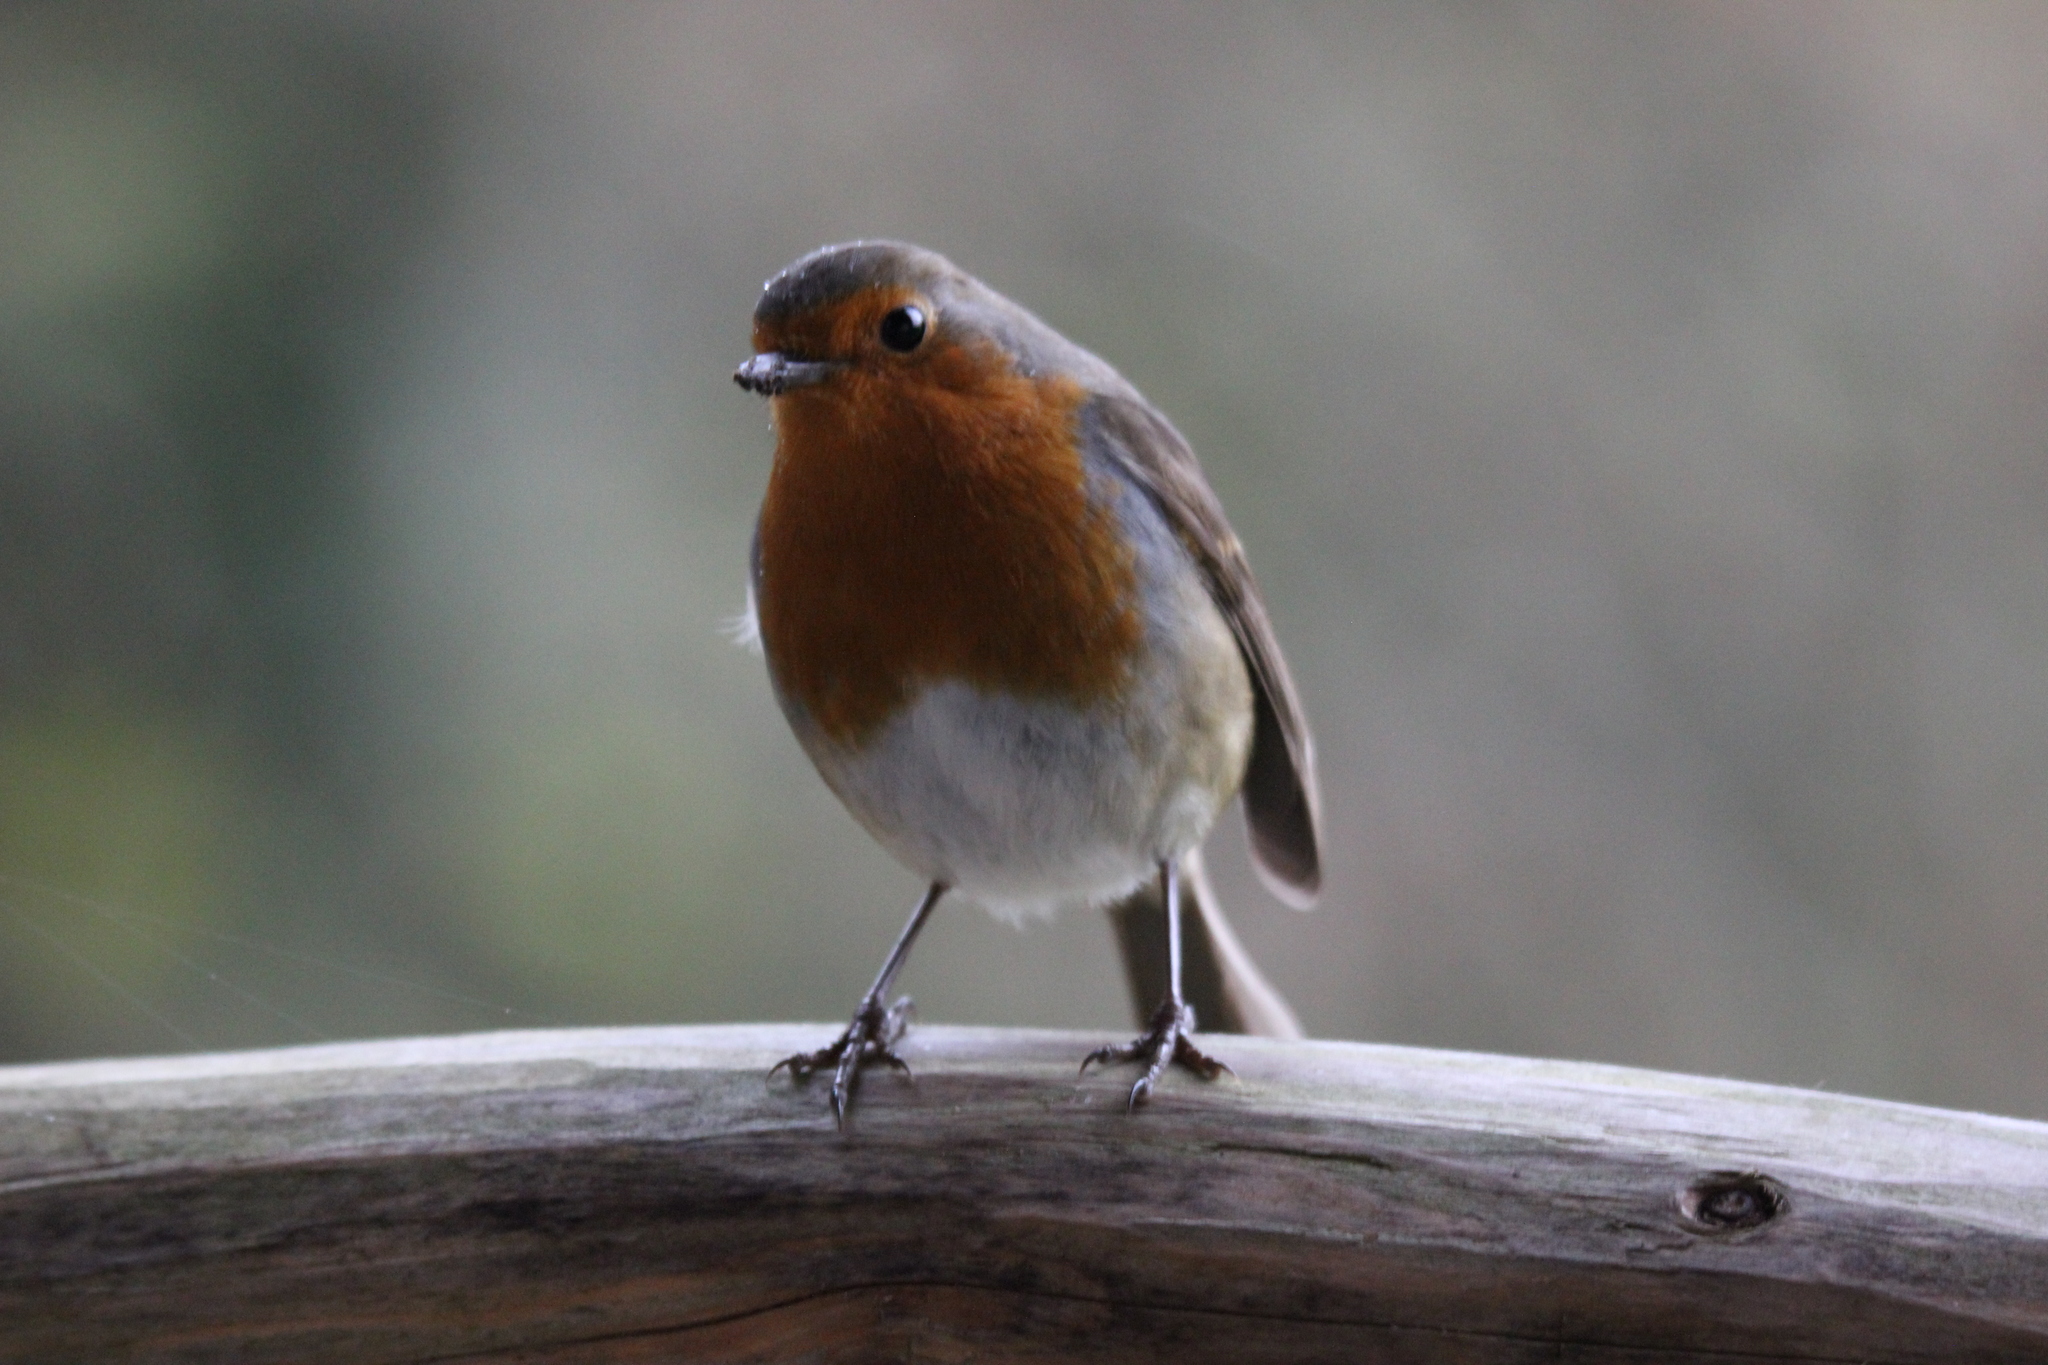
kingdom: Animalia
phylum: Chordata
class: Aves
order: Passeriformes
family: Muscicapidae
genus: Erithacus
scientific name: Erithacus rubecula
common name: European robin
